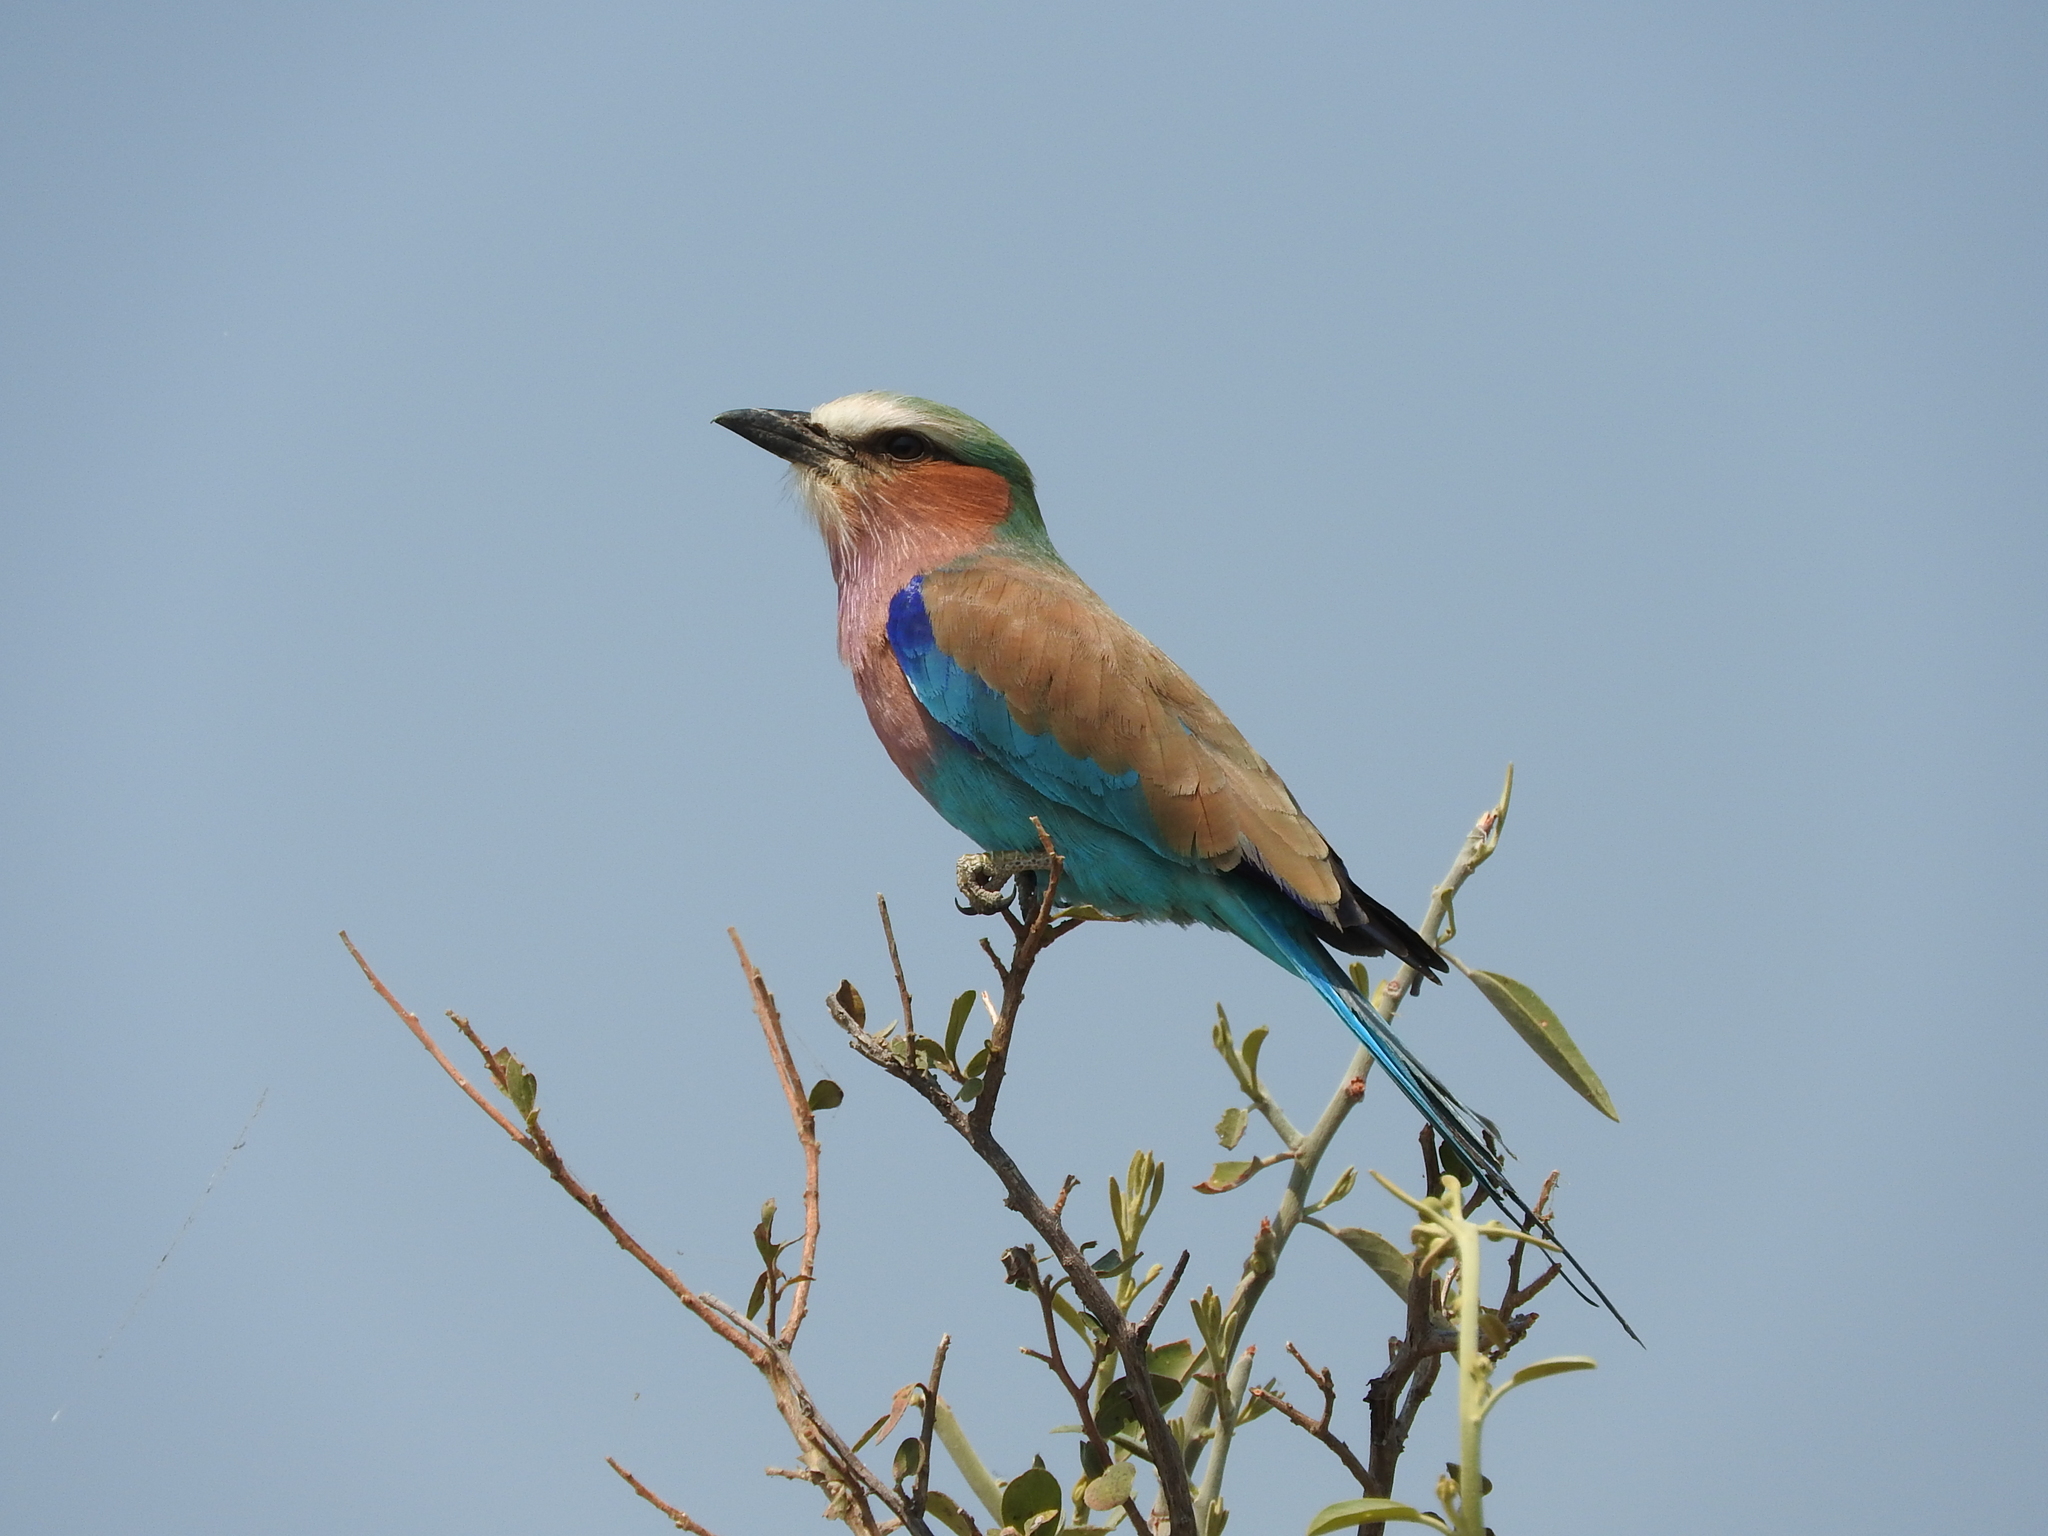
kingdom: Animalia
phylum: Chordata
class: Aves
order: Coraciiformes
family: Coraciidae
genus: Coracias
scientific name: Coracias caudatus
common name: Lilac-breasted roller
